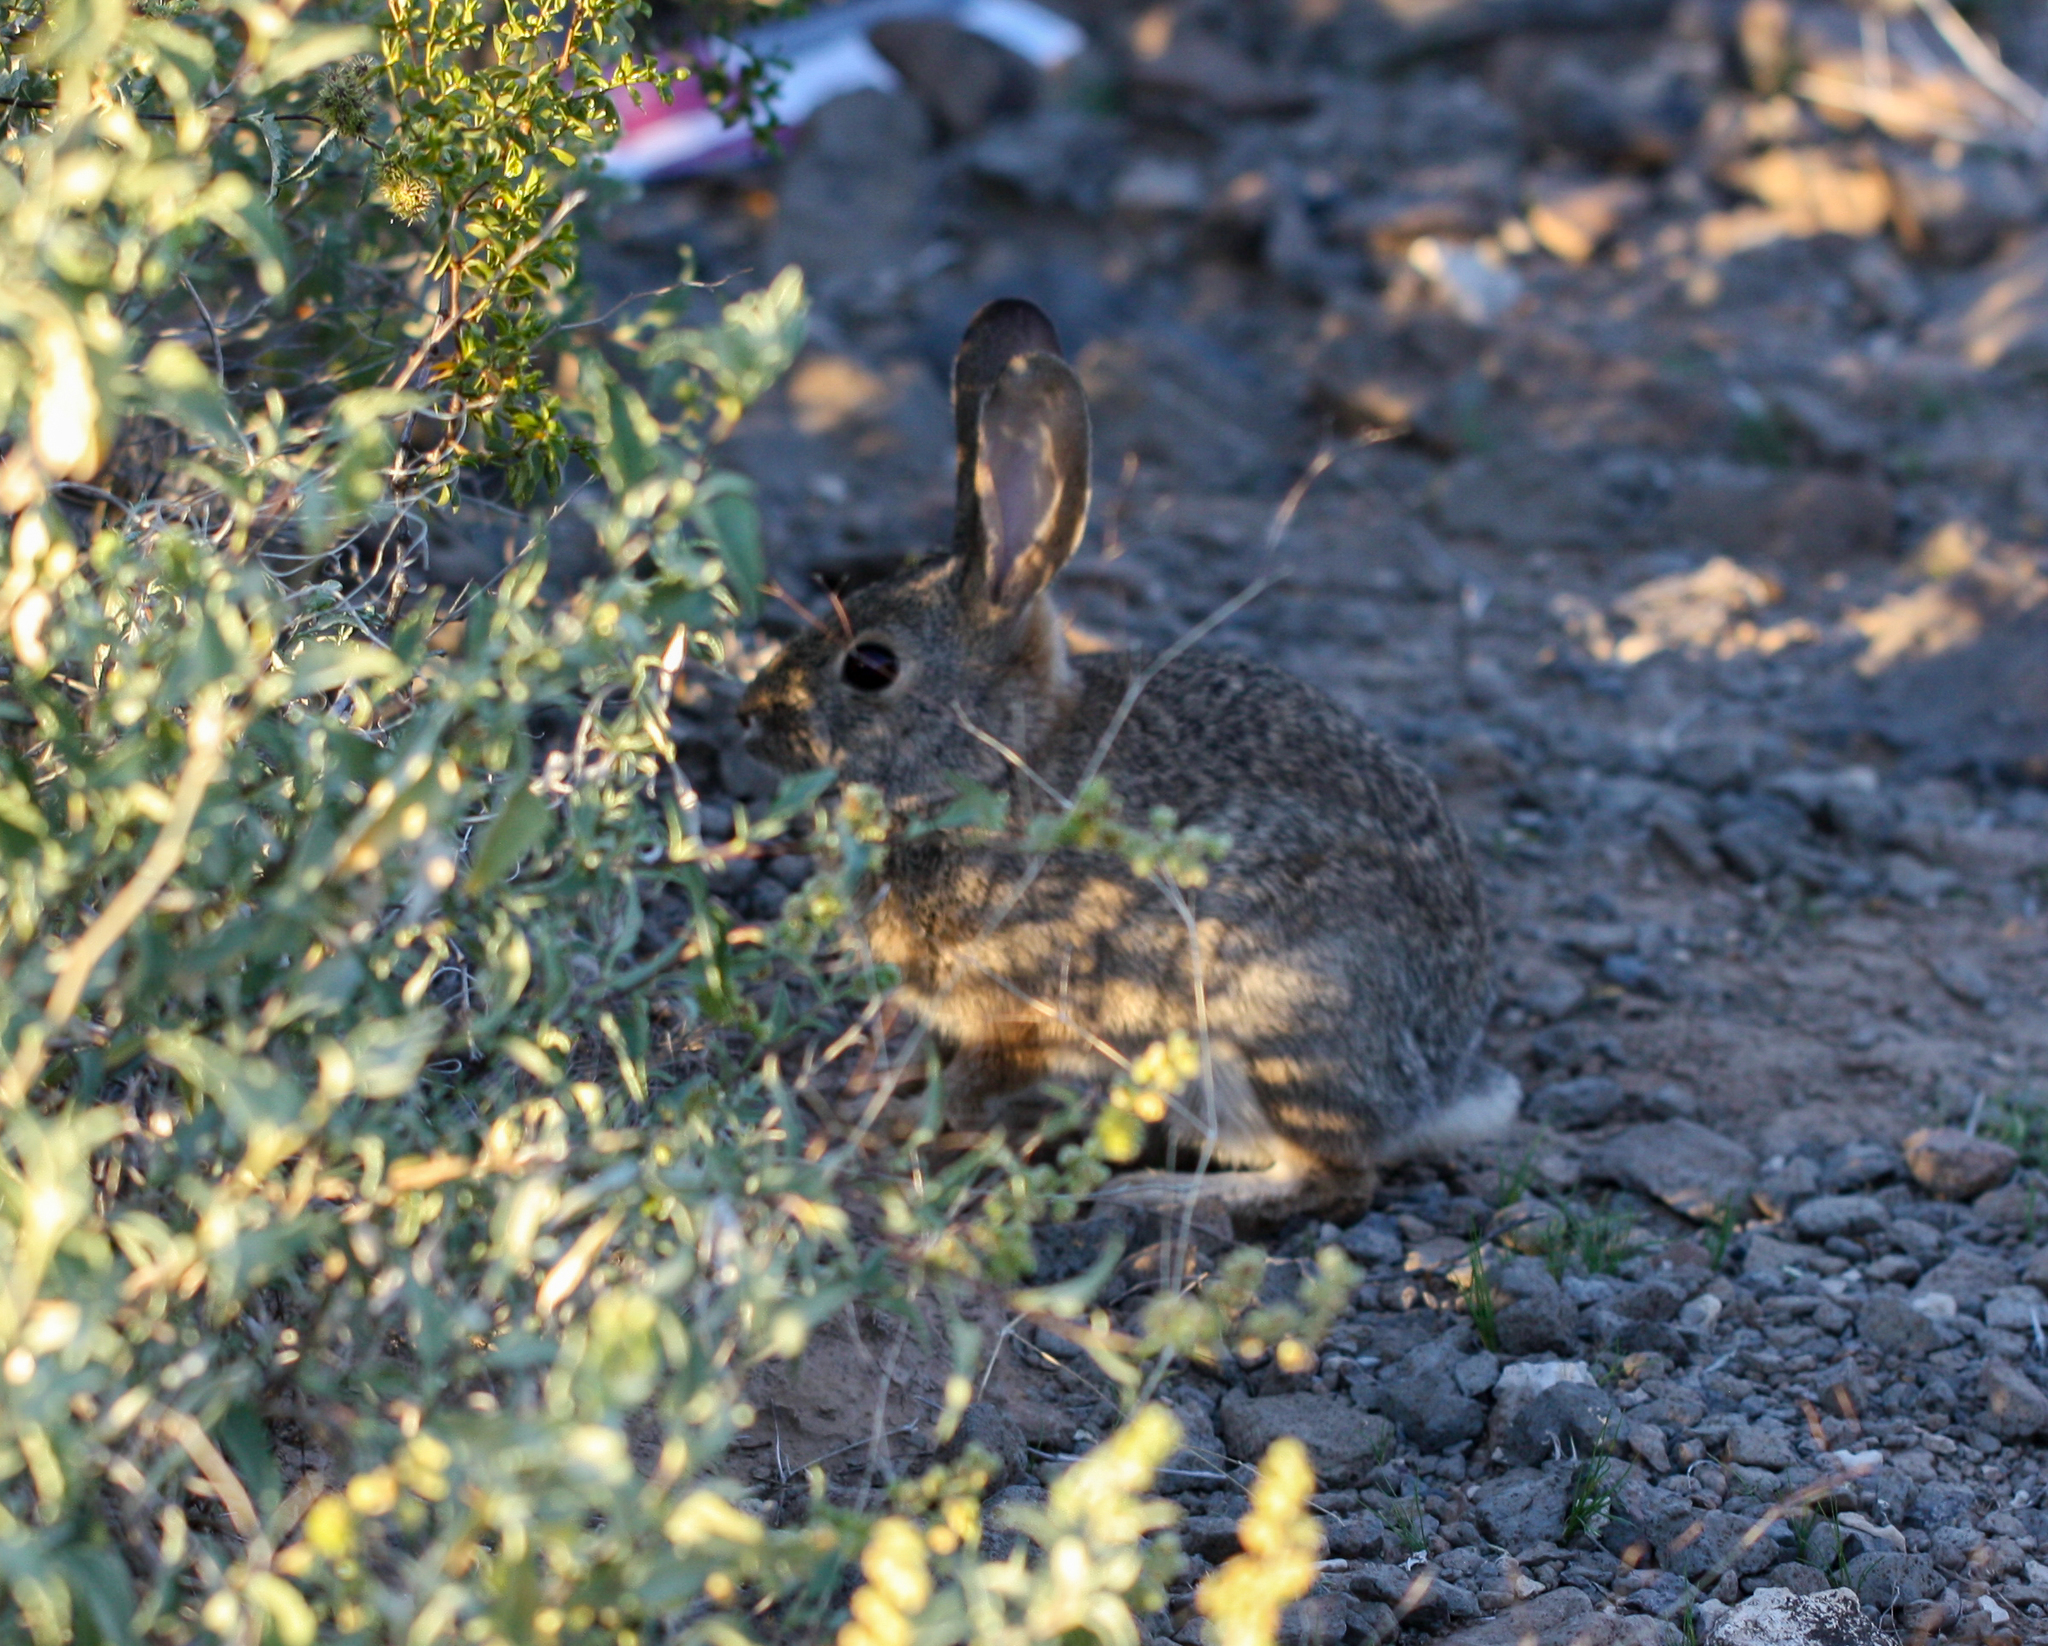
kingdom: Animalia
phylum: Chordata
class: Mammalia
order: Lagomorpha
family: Leporidae
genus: Sylvilagus
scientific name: Sylvilagus audubonii
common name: Desert cottontail
